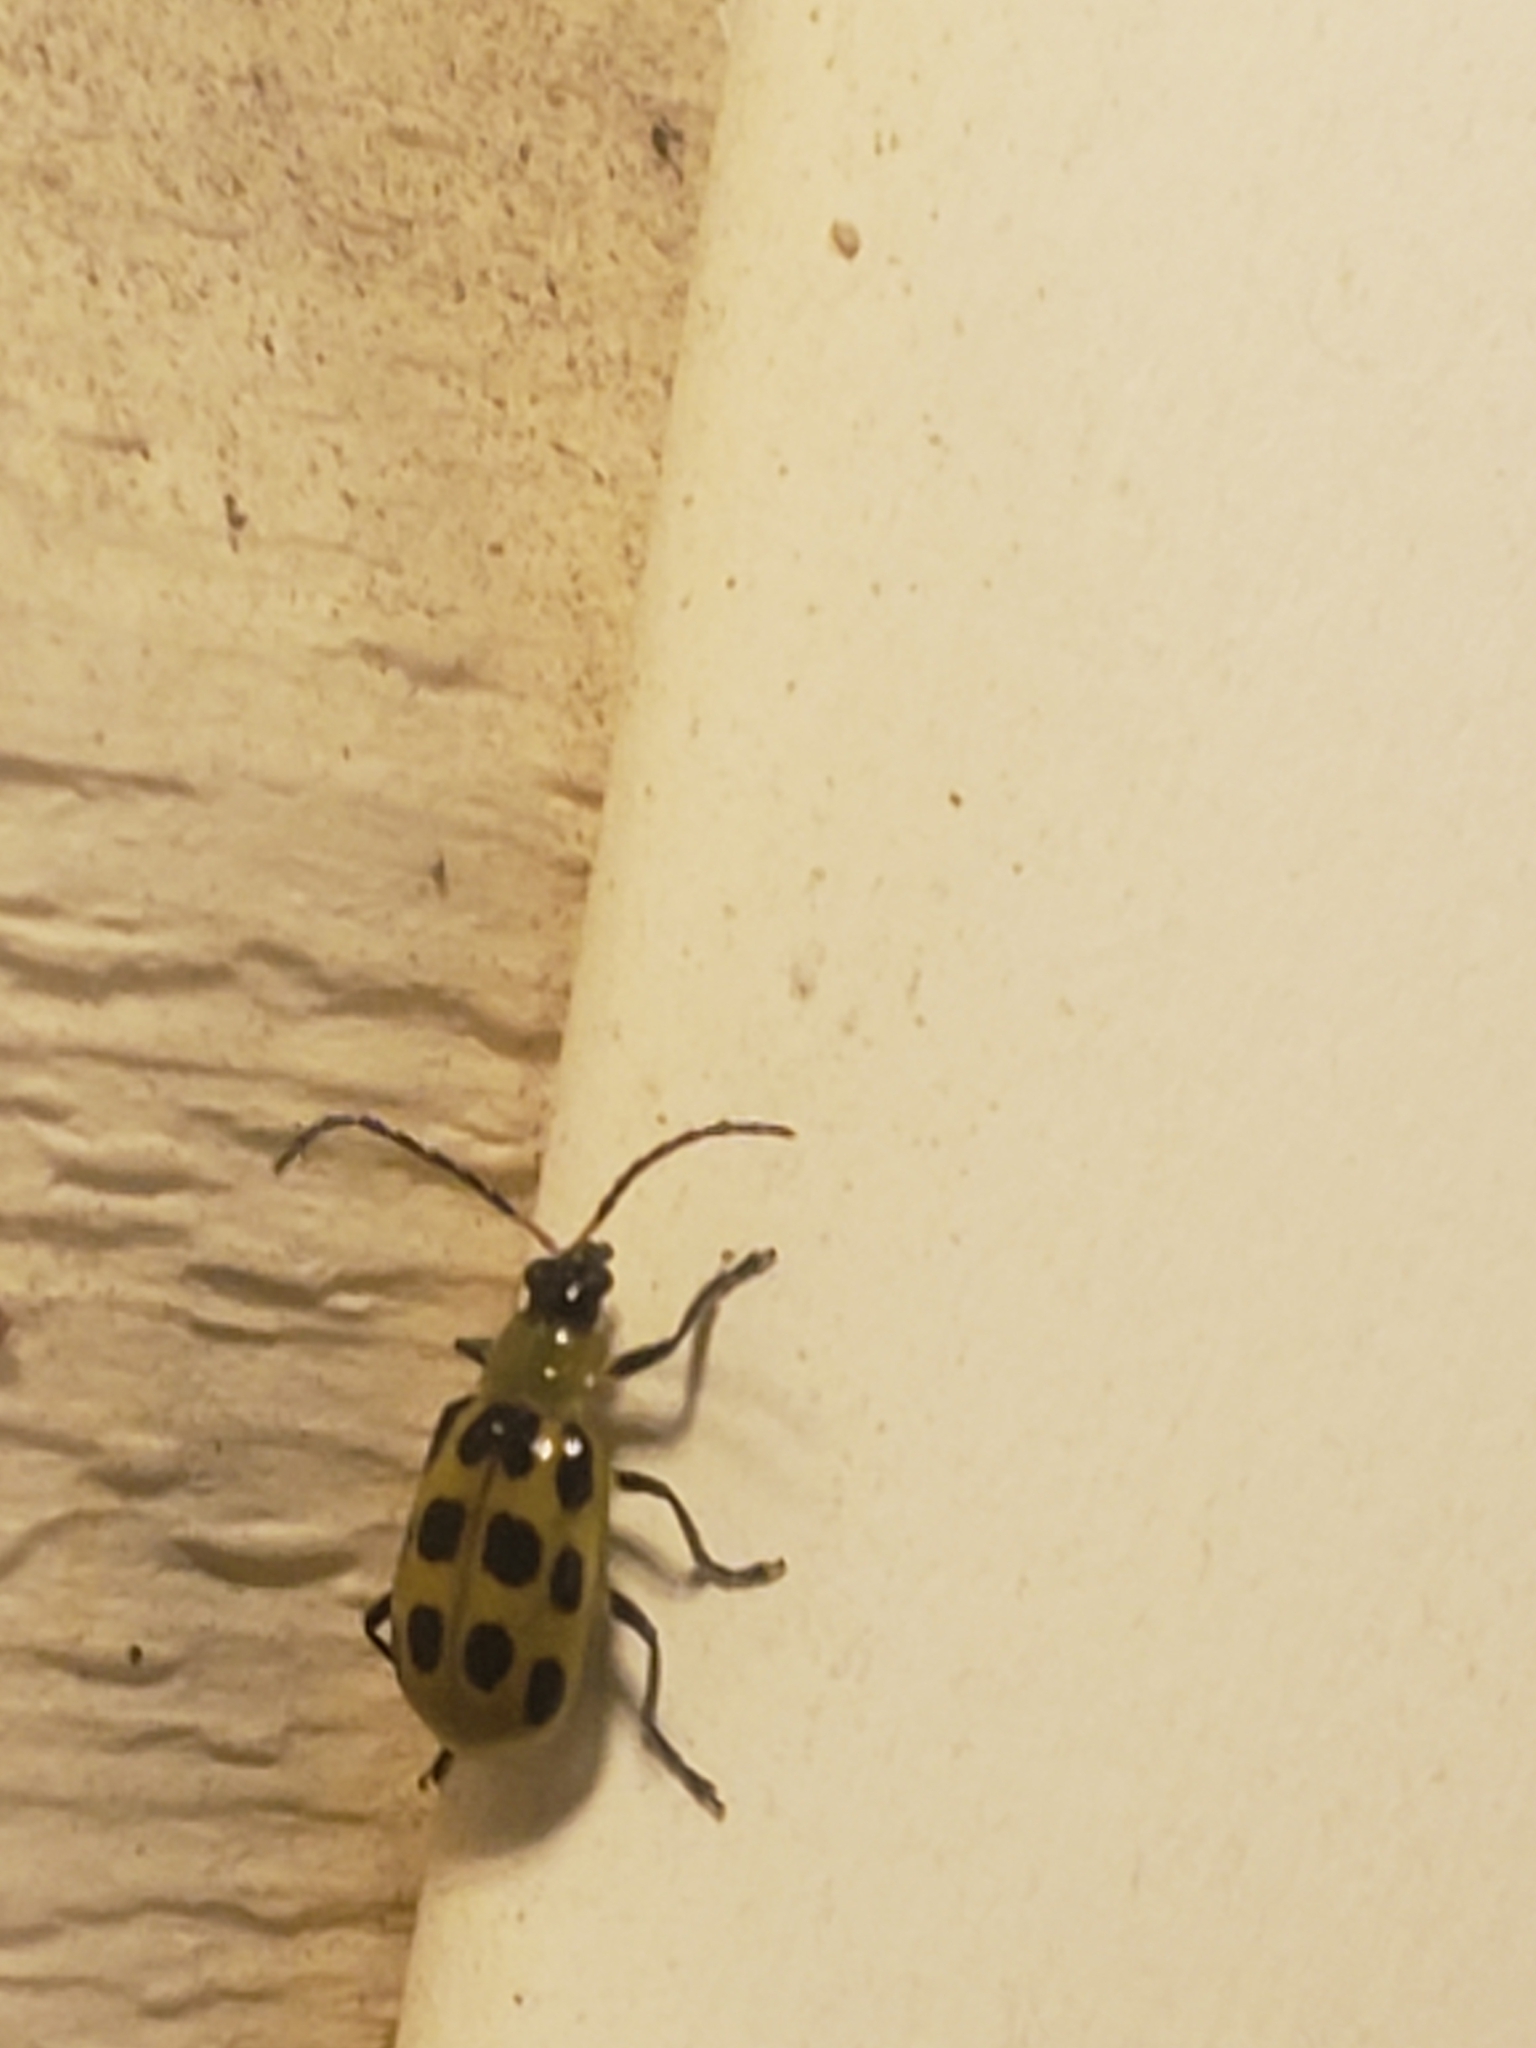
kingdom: Animalia
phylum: Arthropoda
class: Insecta
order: Coleoptera
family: Chrysomelidae
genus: Diabrotica
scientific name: Diabrotica undecimpunctata
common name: Spotted cucumber beetle
